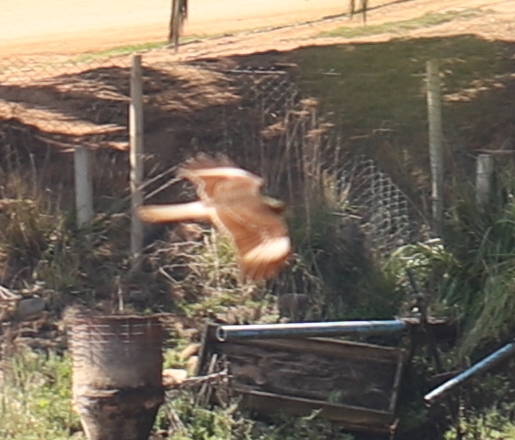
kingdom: Animalia
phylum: Chordata
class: Aves
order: Falconiformes
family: Falconidae
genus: Daptrius
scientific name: Daptrius
